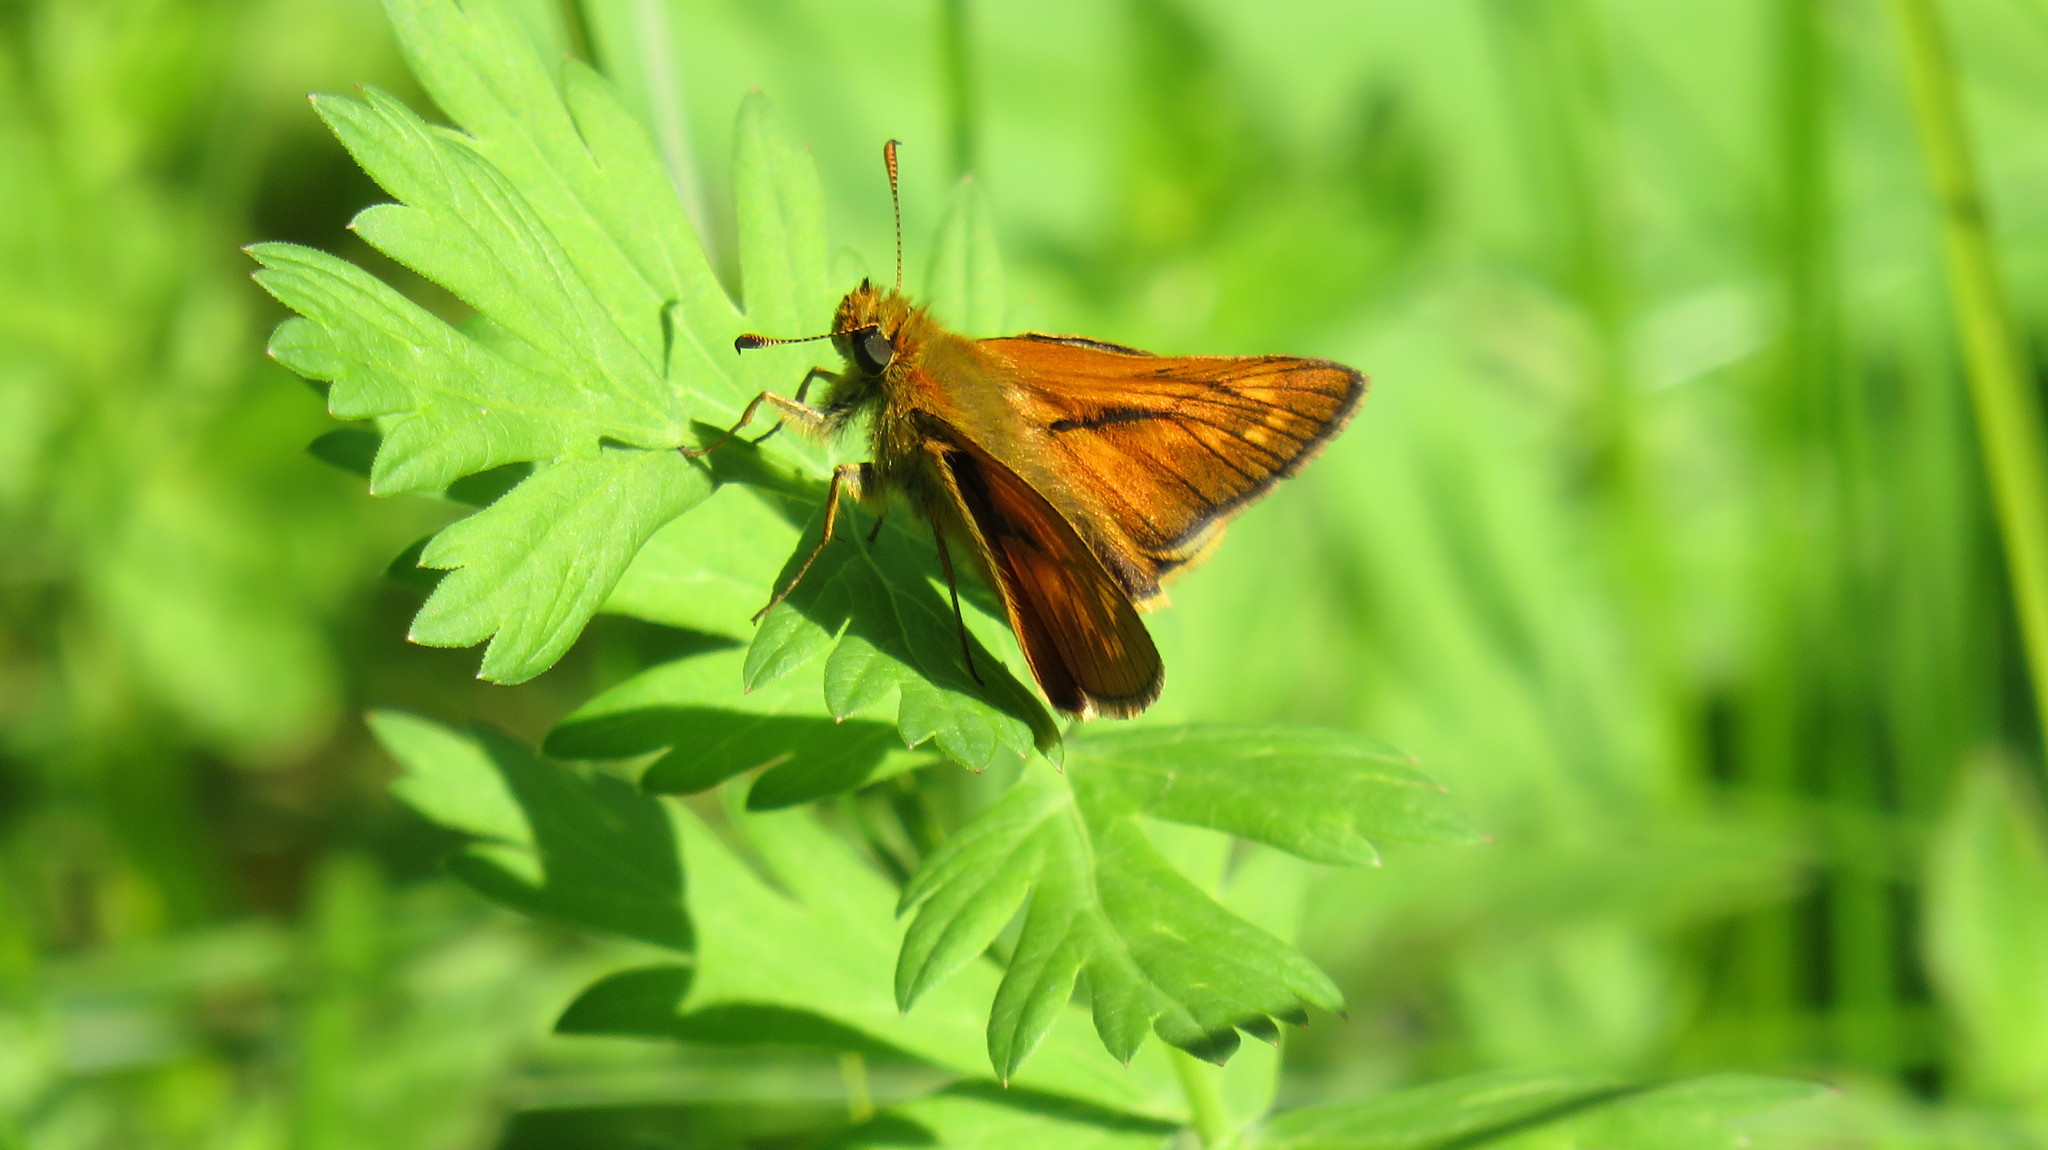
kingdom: Animalia
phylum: Arthropoda
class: Insecta
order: Lepidoptera
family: Hesperiidae
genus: Ochlodes
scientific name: Ochlodes venata
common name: Large skipper
